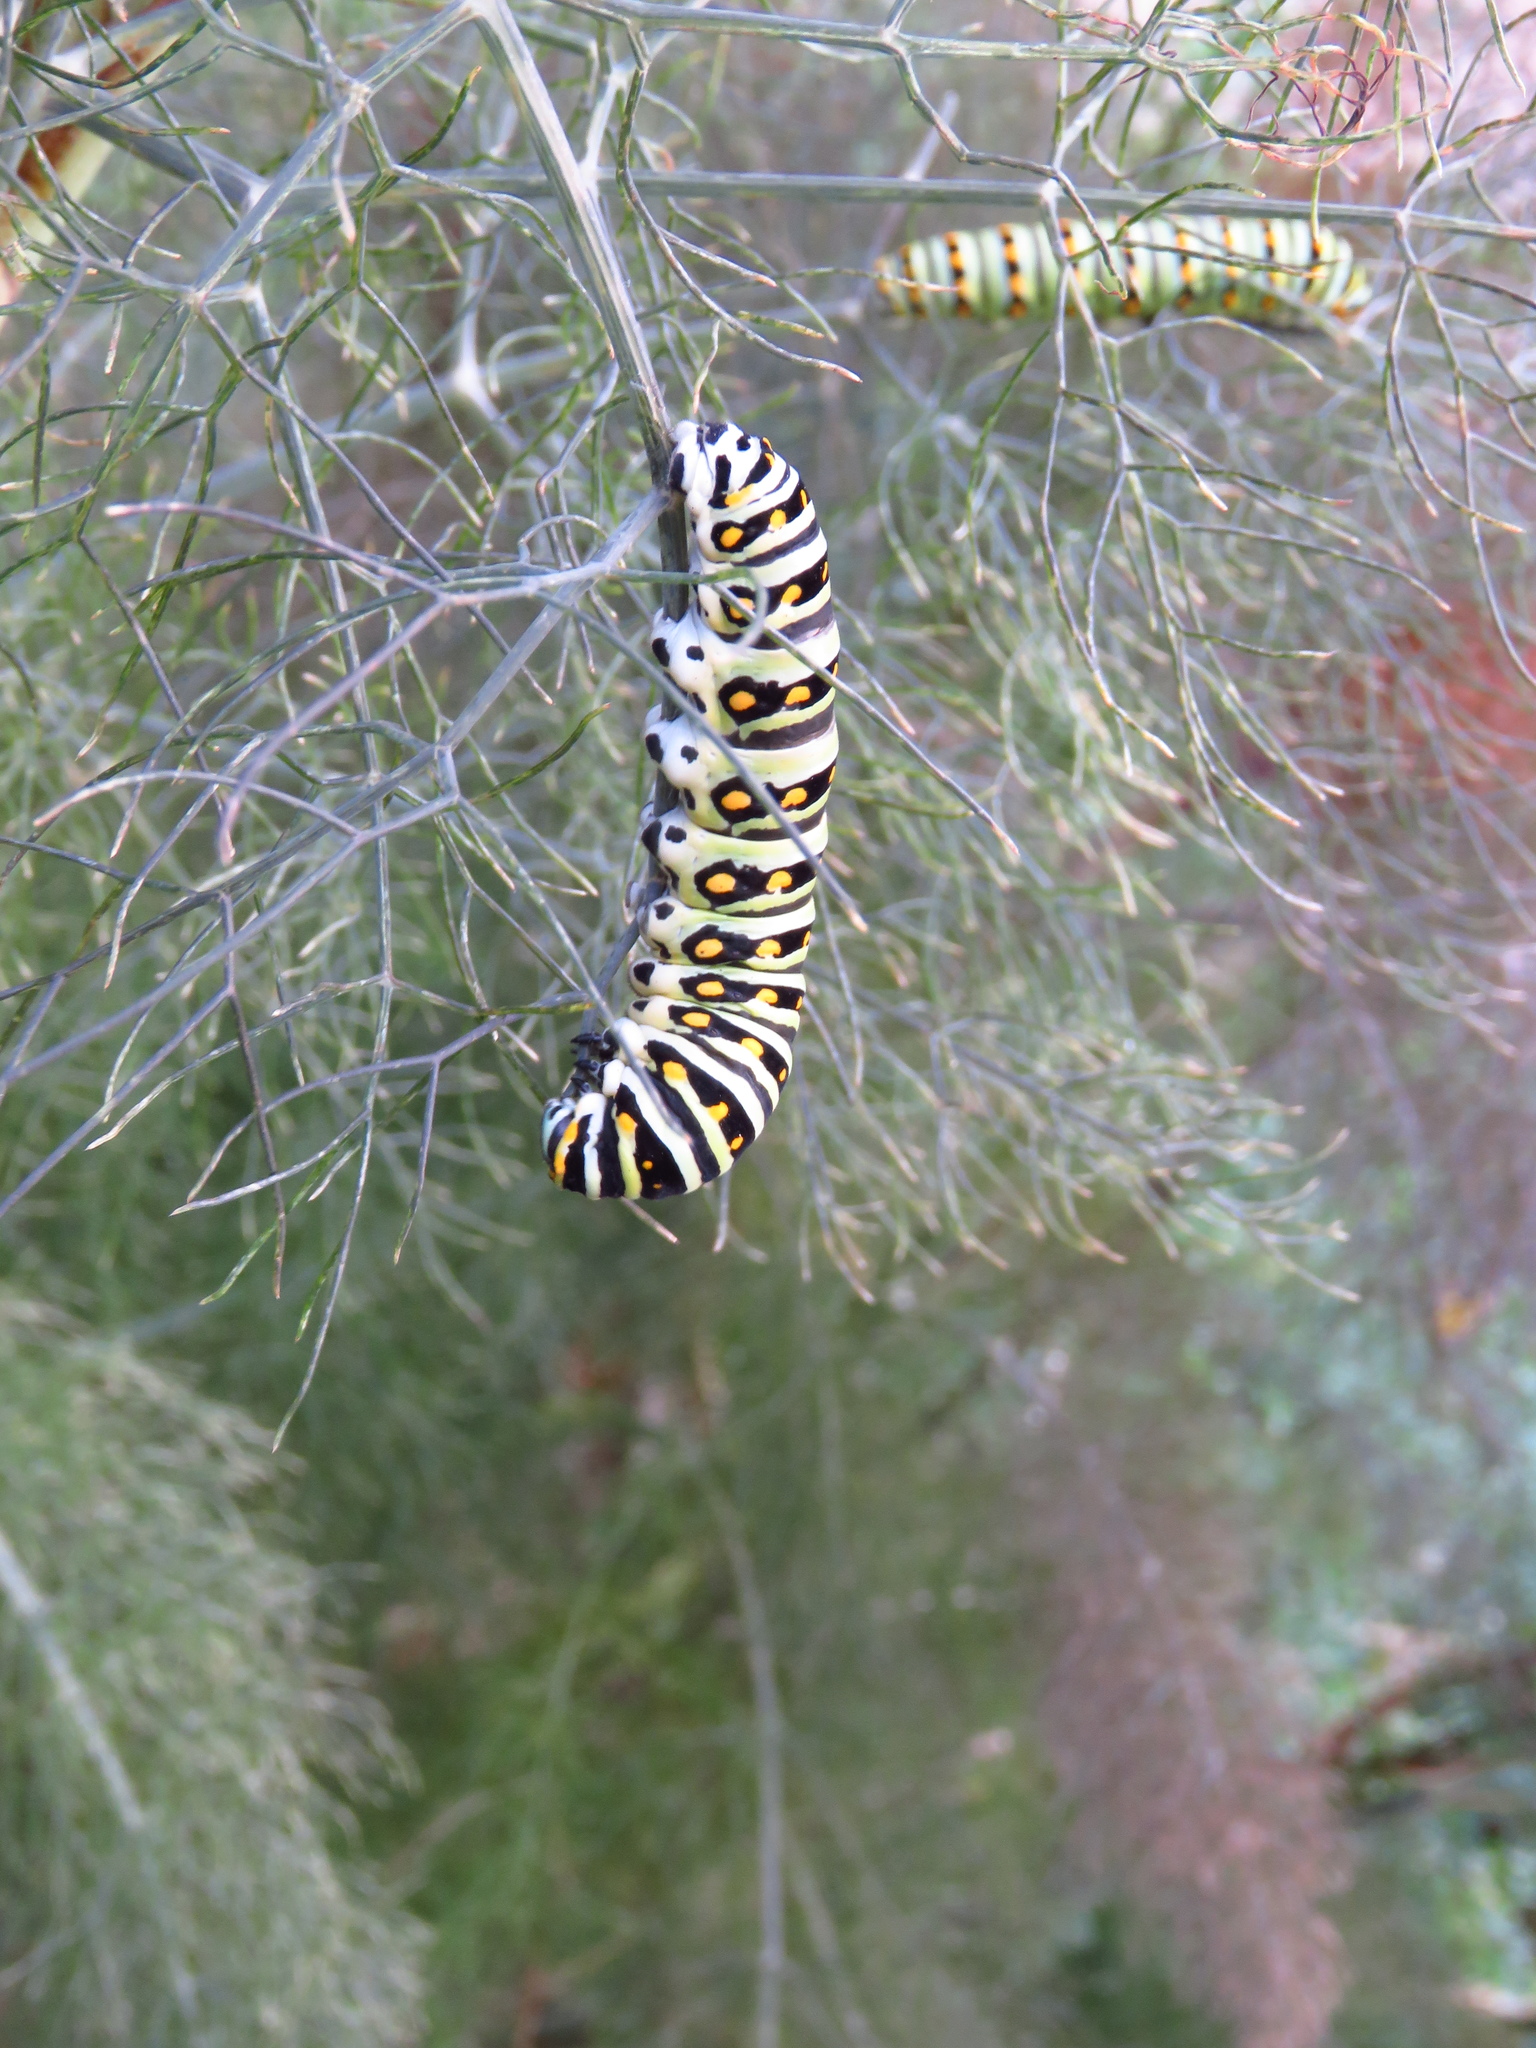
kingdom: Animalia
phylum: Arthropoda
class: Insecta
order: Lepidoptera
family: Papilionidae
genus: Papilio
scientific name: Papilio polyxenes
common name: Black swallowtail
